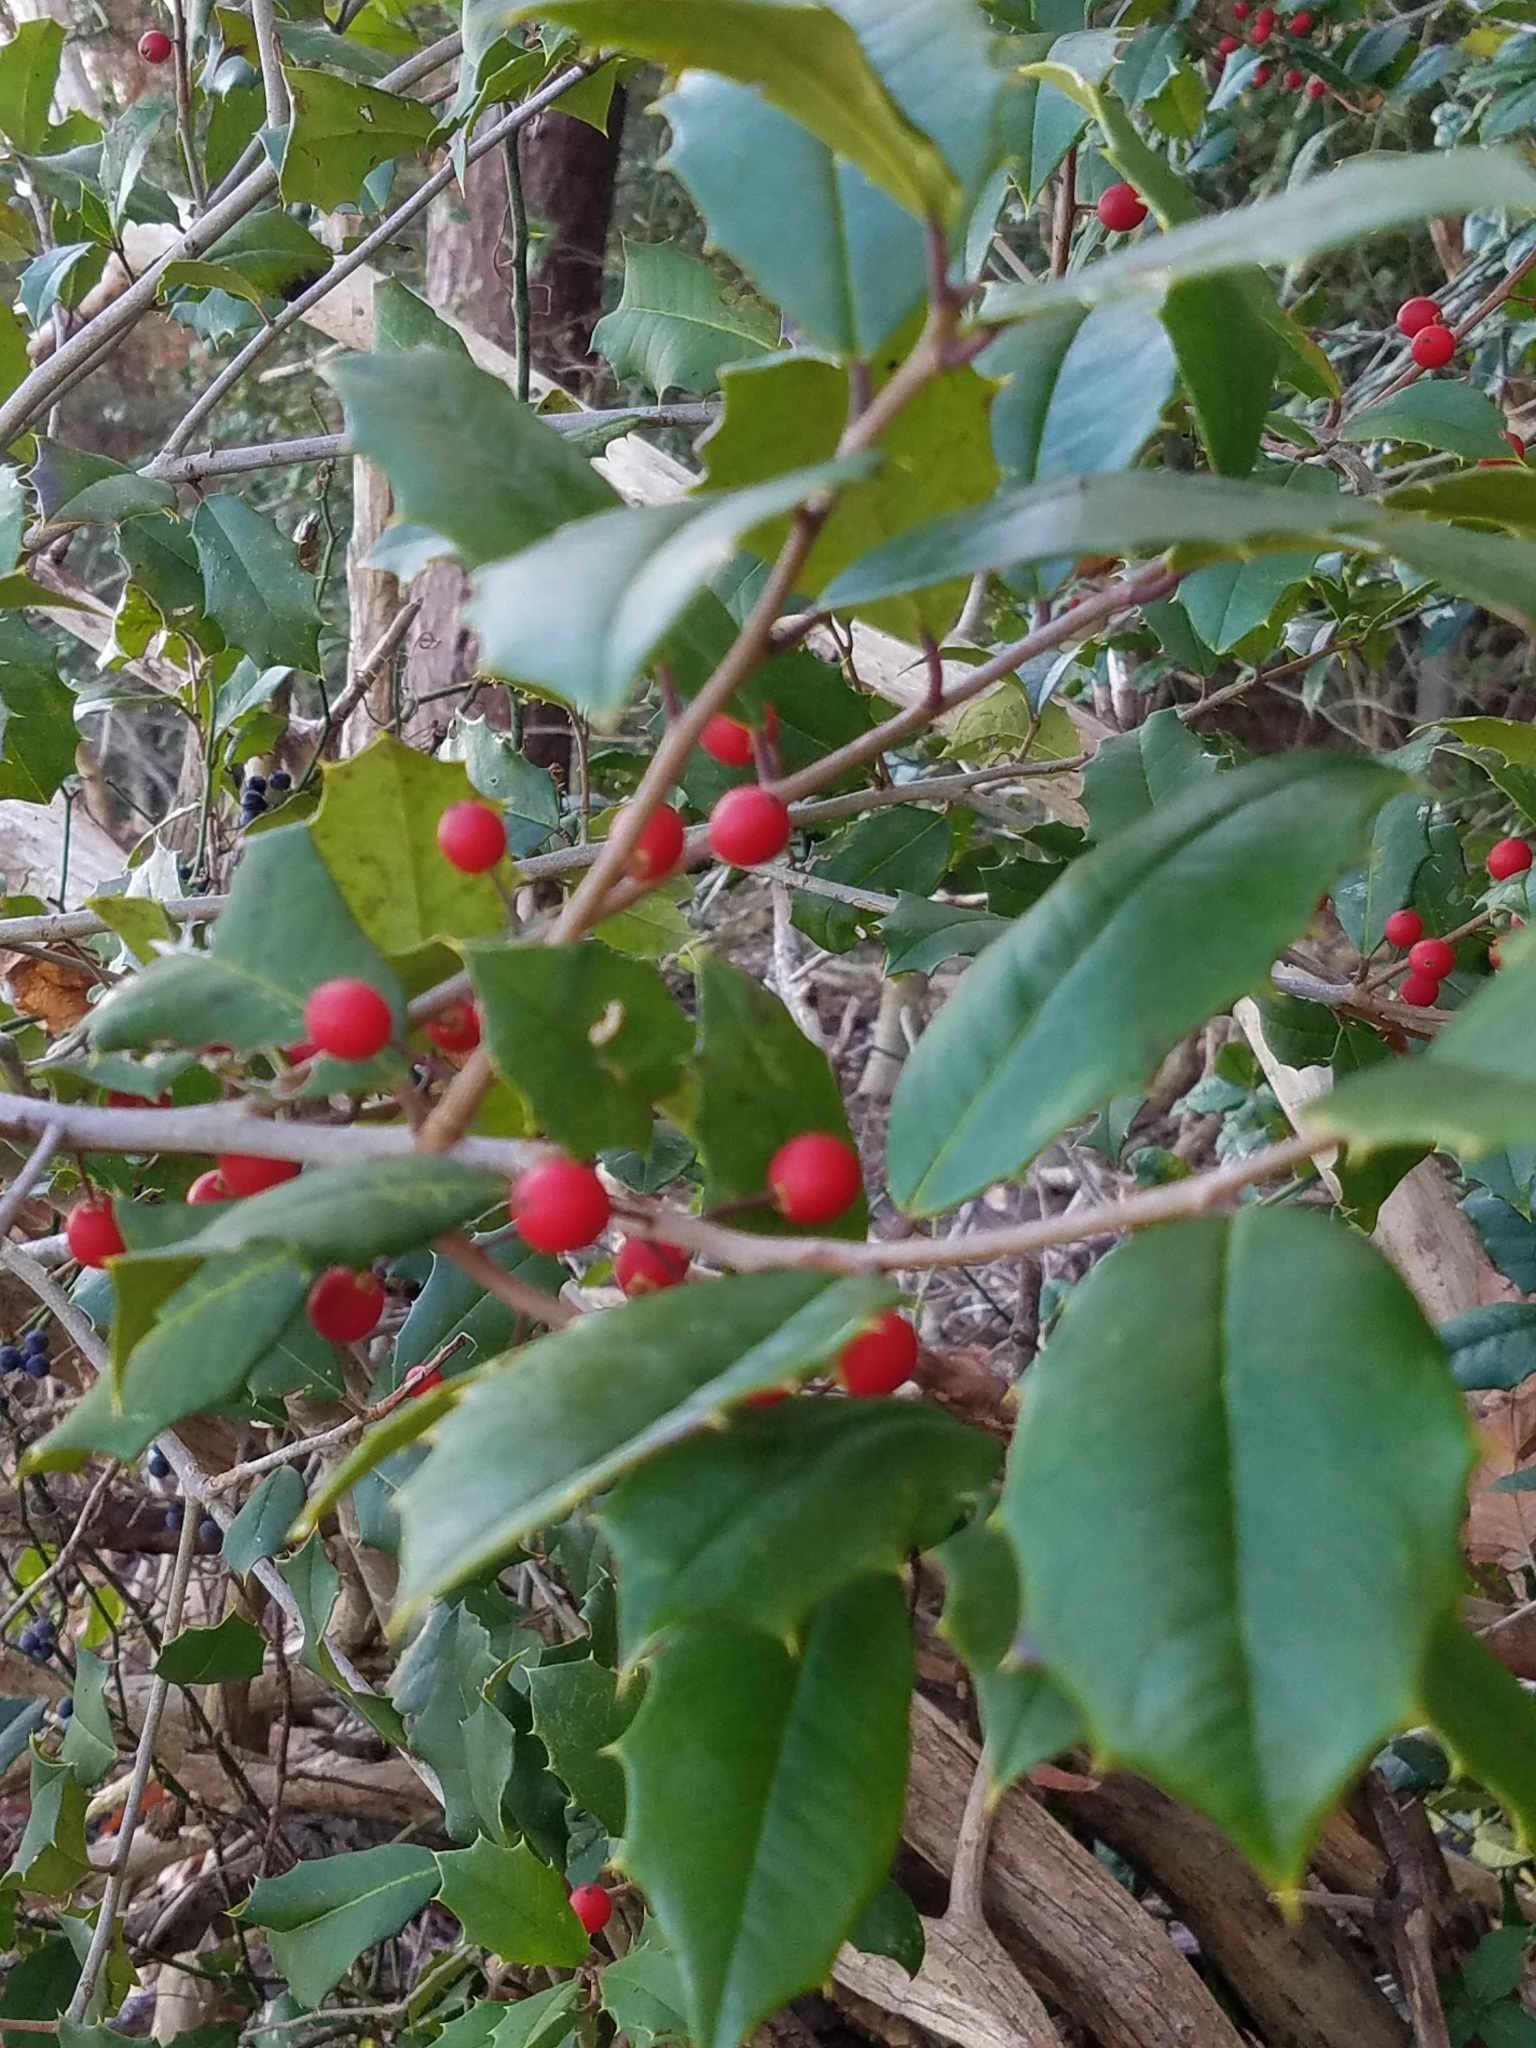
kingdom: Plantae
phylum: Tracheophyta
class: Magnoliopsida
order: Aquifoliales
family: Aquifoliaceae
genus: Ilex
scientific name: Ilex opaca
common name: American holly
